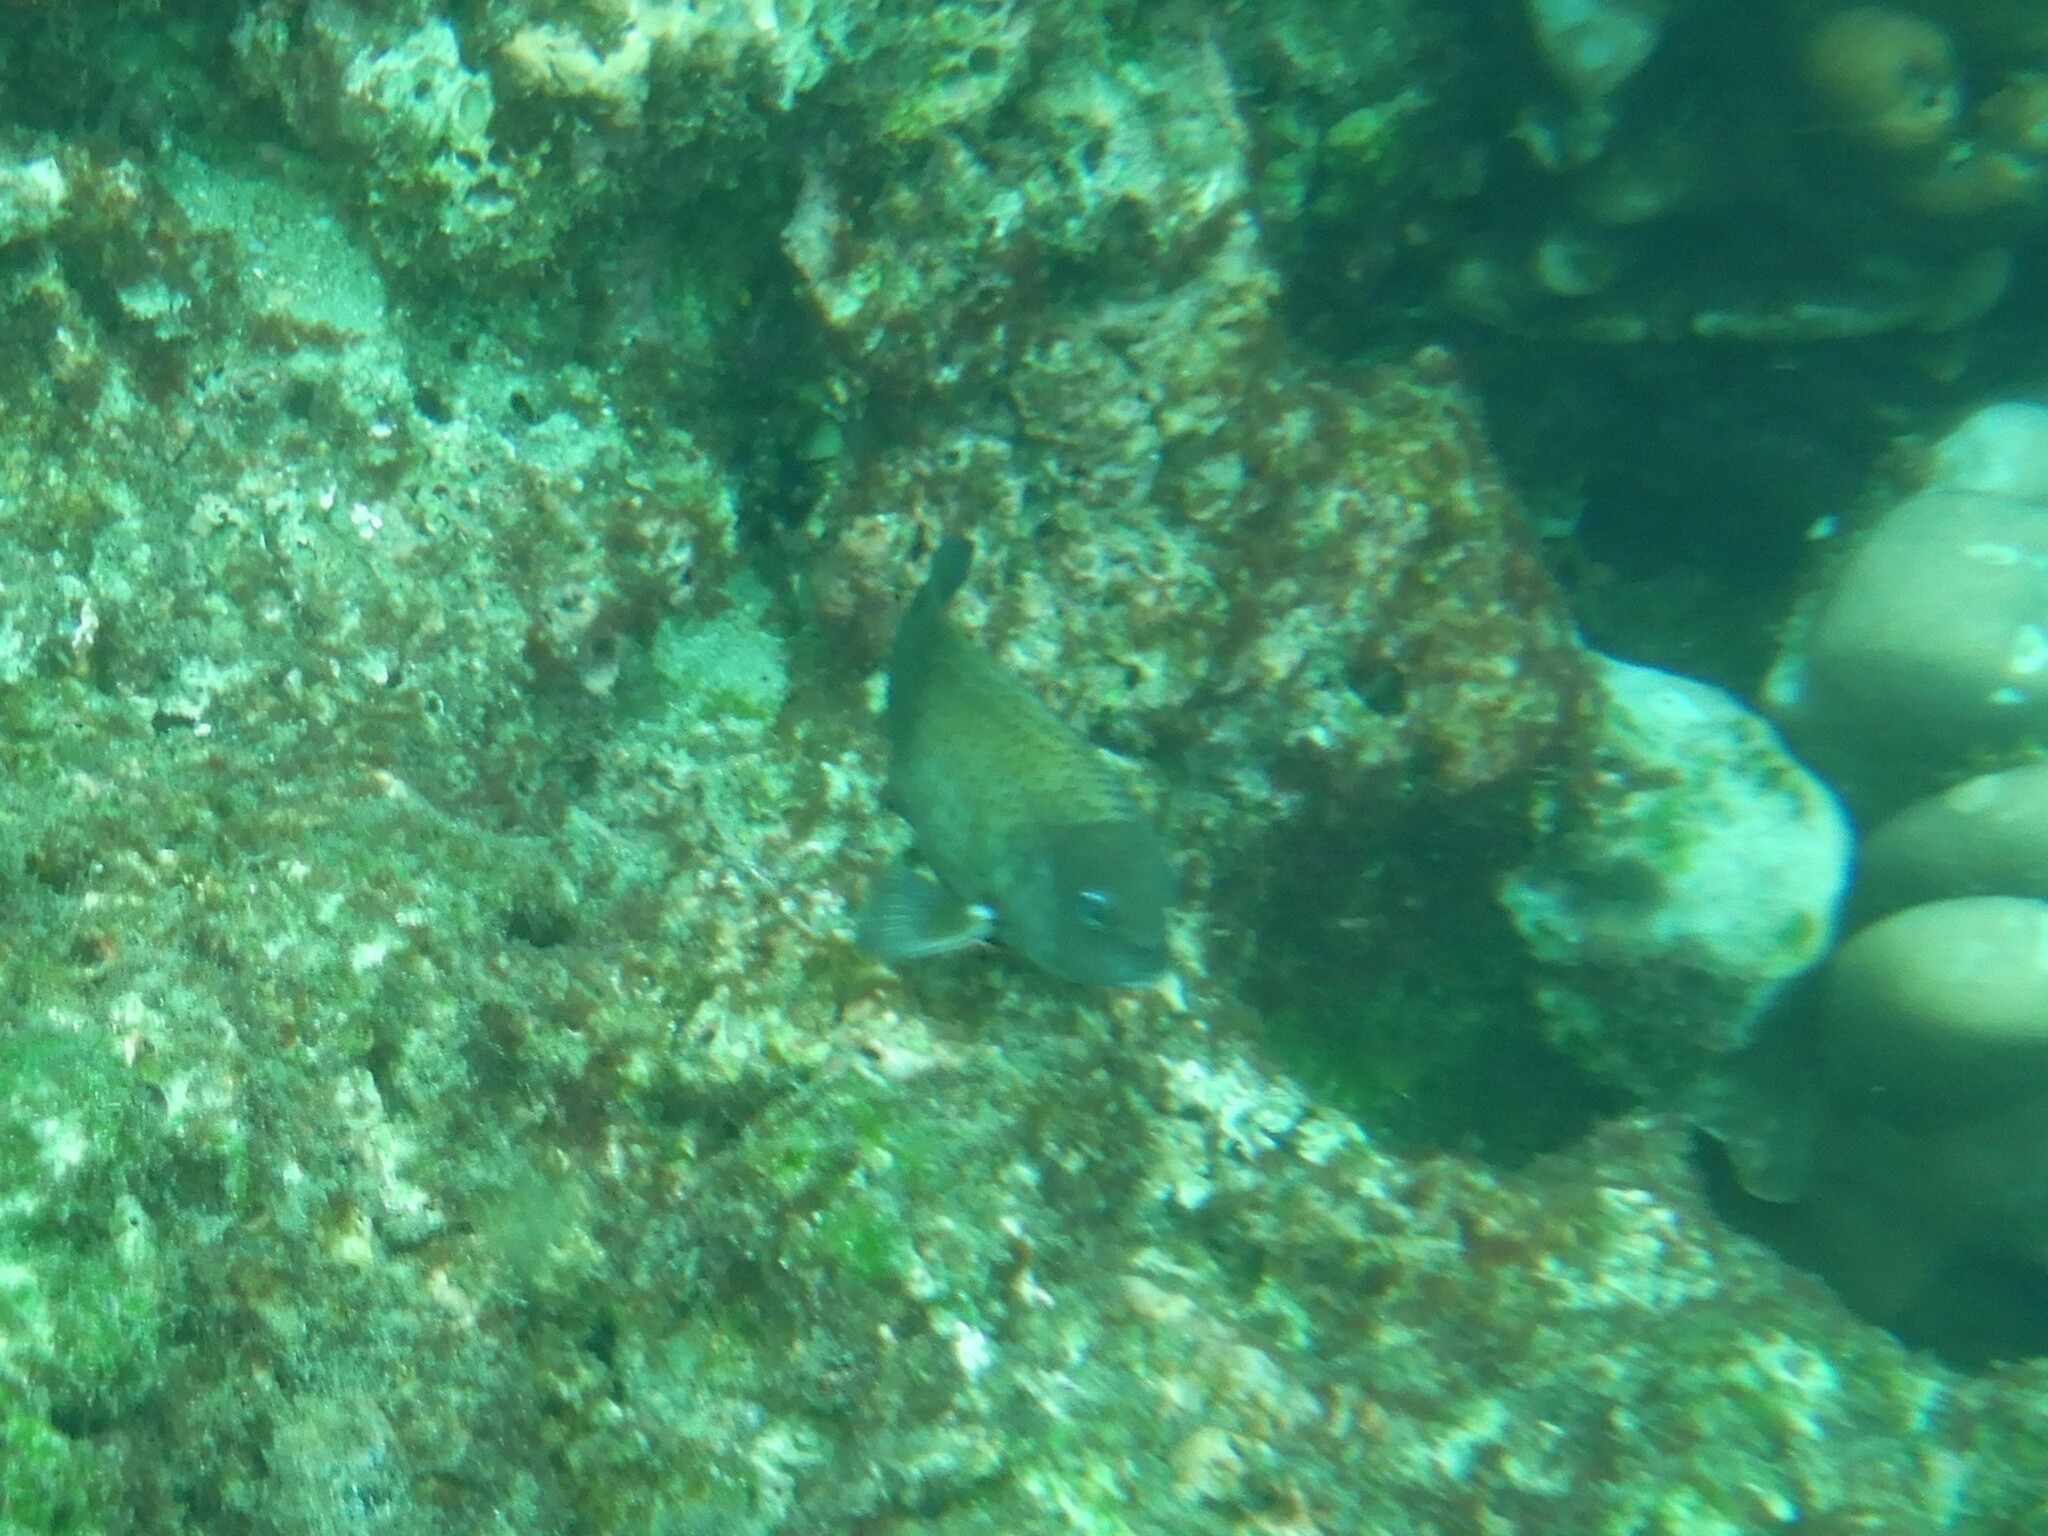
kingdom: Animalia
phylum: Chordata
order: Perciformes
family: Pomacentridae
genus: Stegastes
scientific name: Stegastes acapulcoensis
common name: Acapulco damselfish
